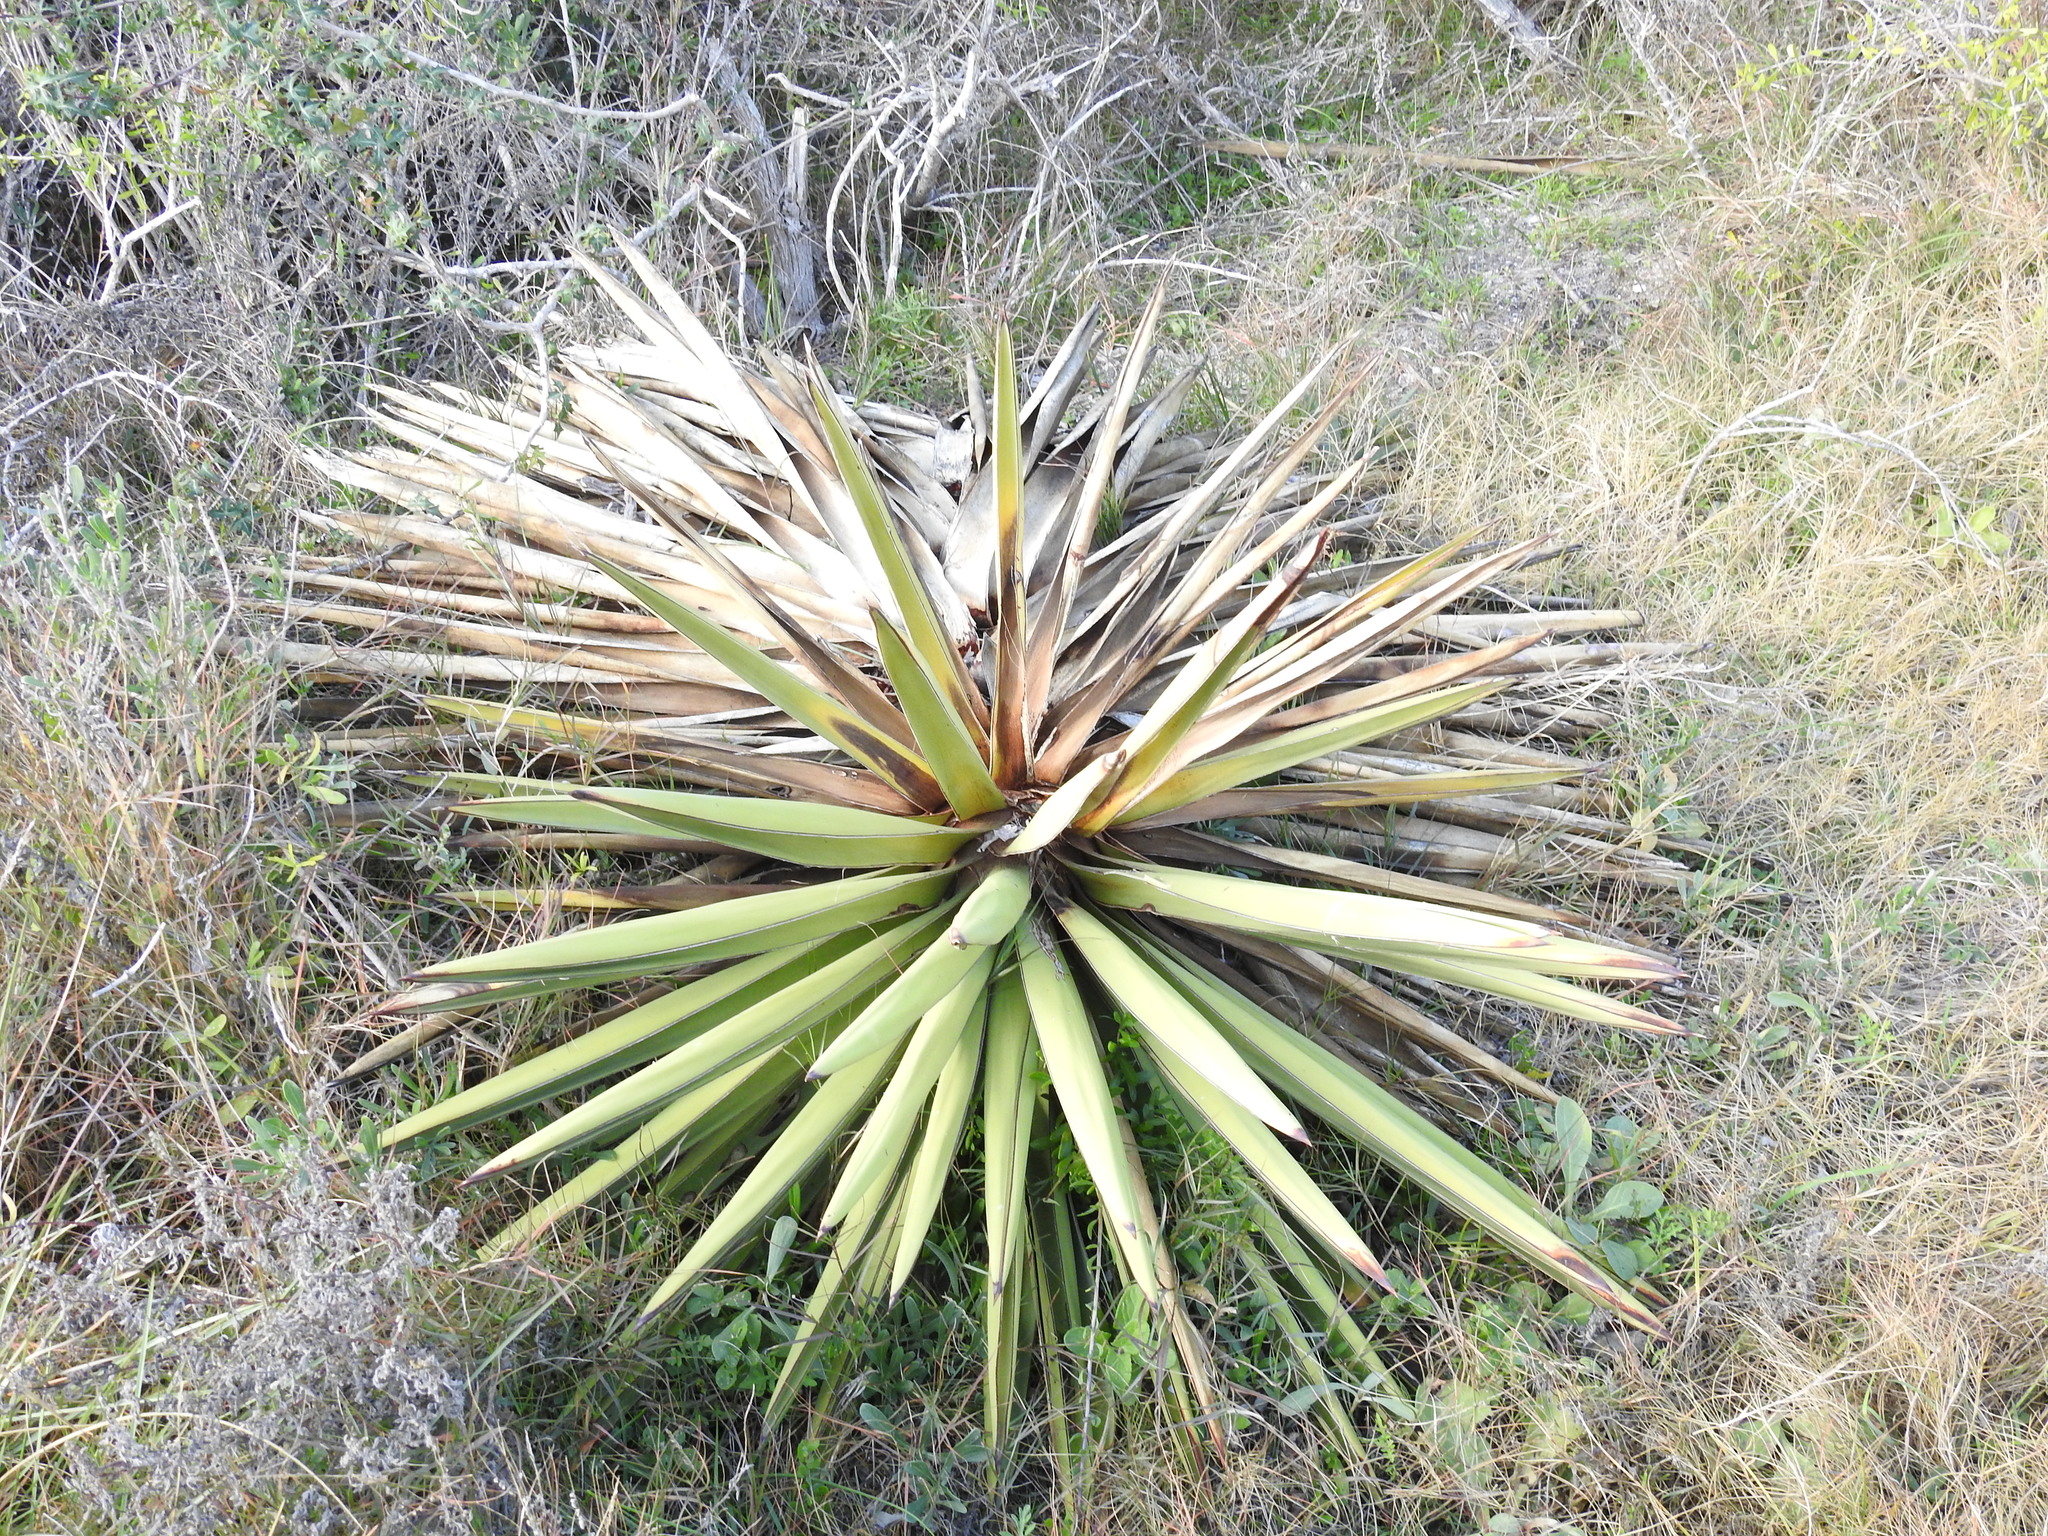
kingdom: Plantae
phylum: Tracheophyta
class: Liliopsida
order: Asparagales
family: Asparagaceae
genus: Yucca
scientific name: Yucca treculiana
